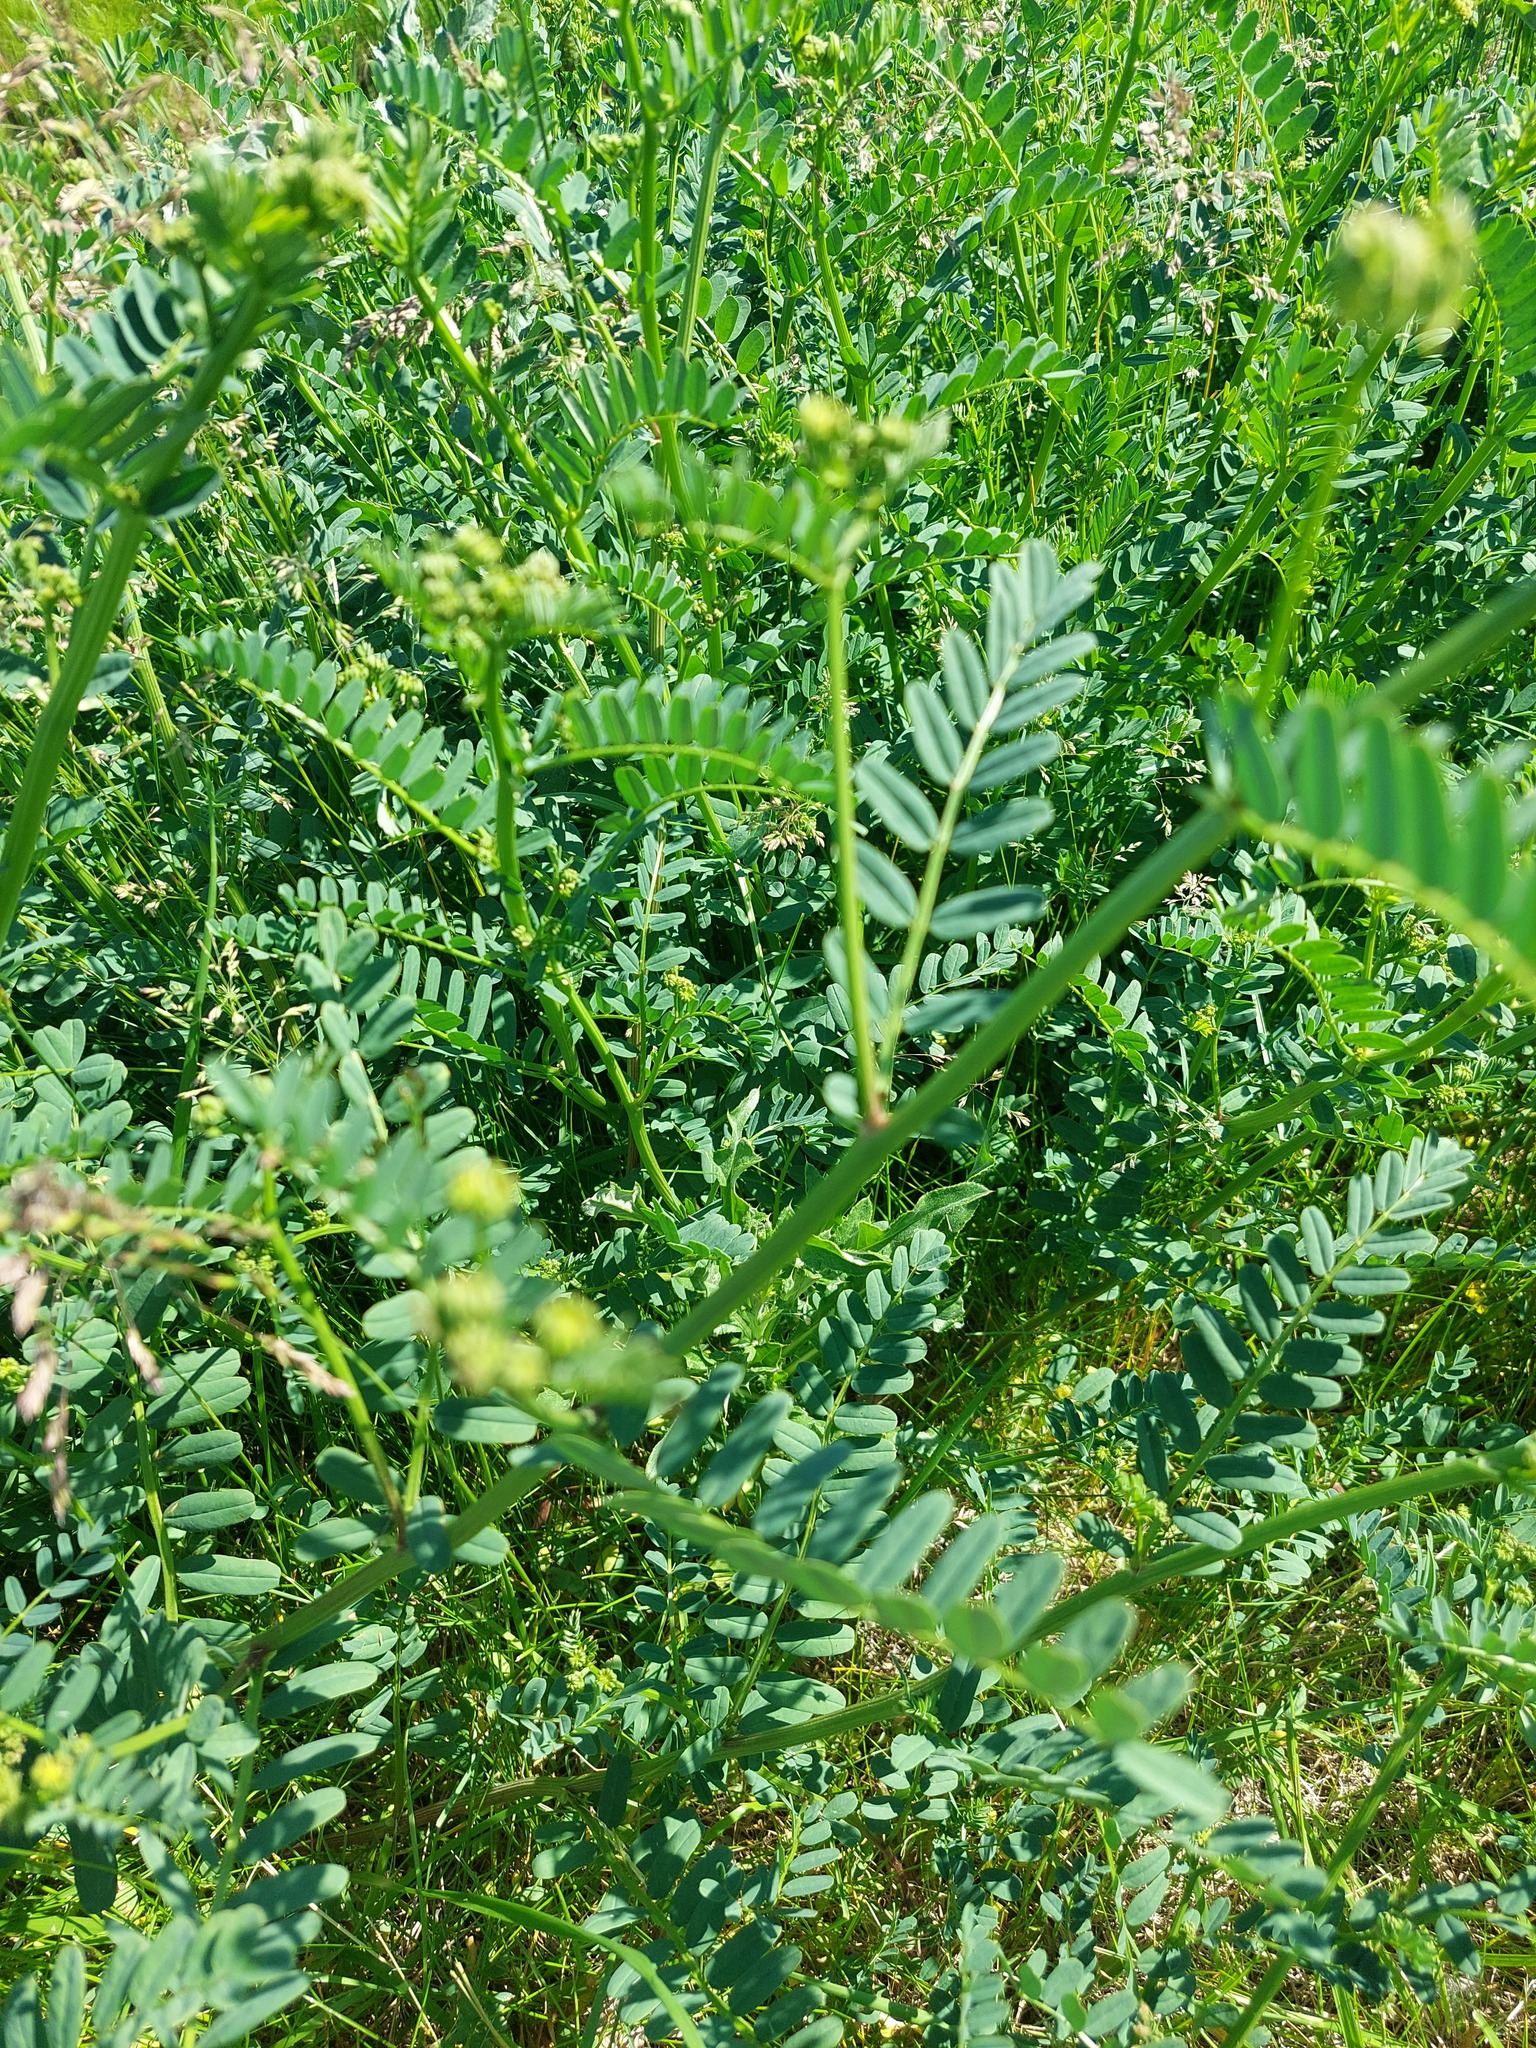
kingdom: Plantae
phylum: Tracheophyta
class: Magnoliopsida
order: Fabales
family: Fabaceae
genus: Coronilla
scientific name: Coronilla varia
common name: Crownvetch
